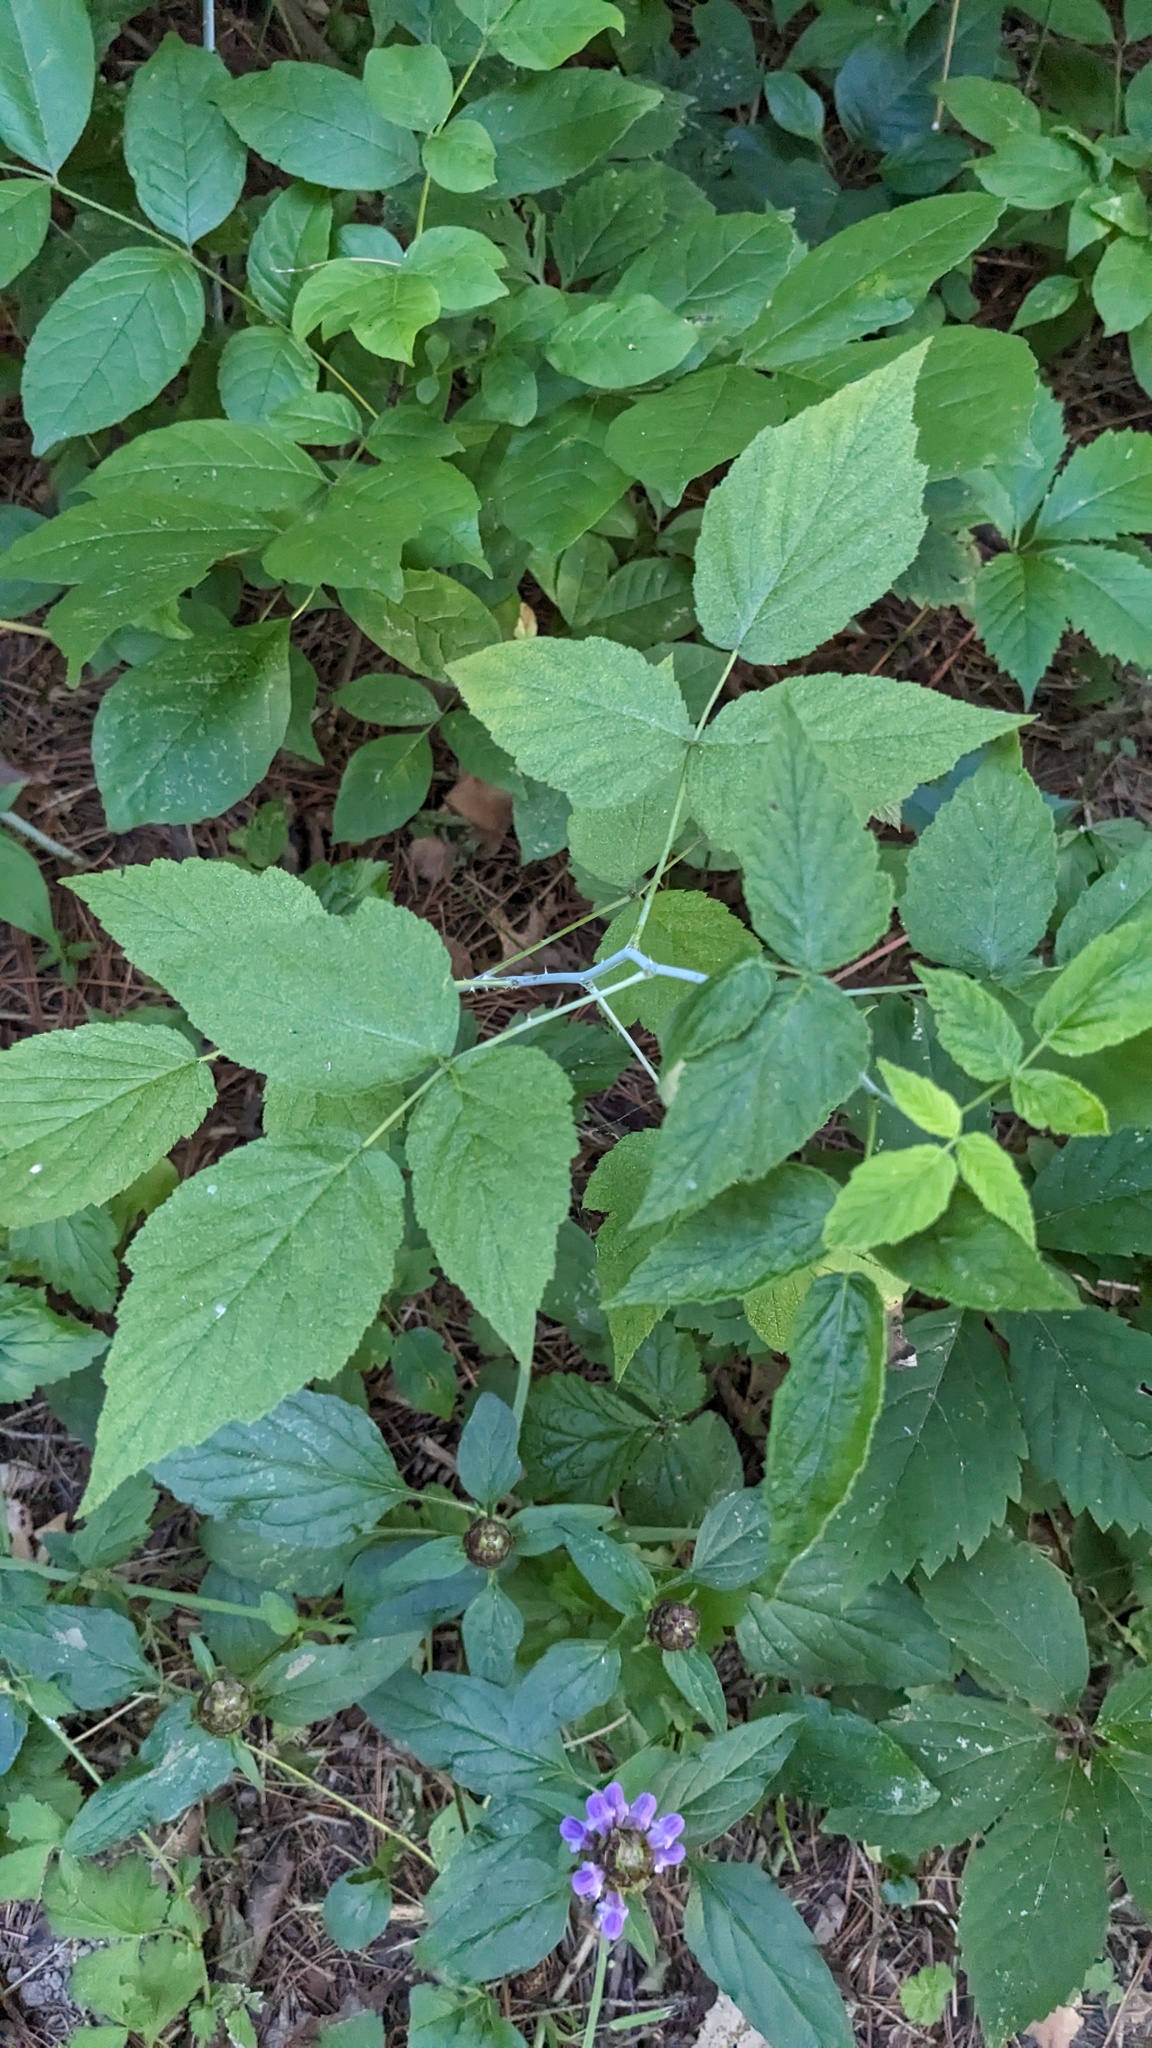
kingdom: Plantae
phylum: Tracheophyta
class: Magnoliopsida
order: Lamiales
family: Lamiaceae
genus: Prunella
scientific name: Prunella vulgaris
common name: Heal-all
